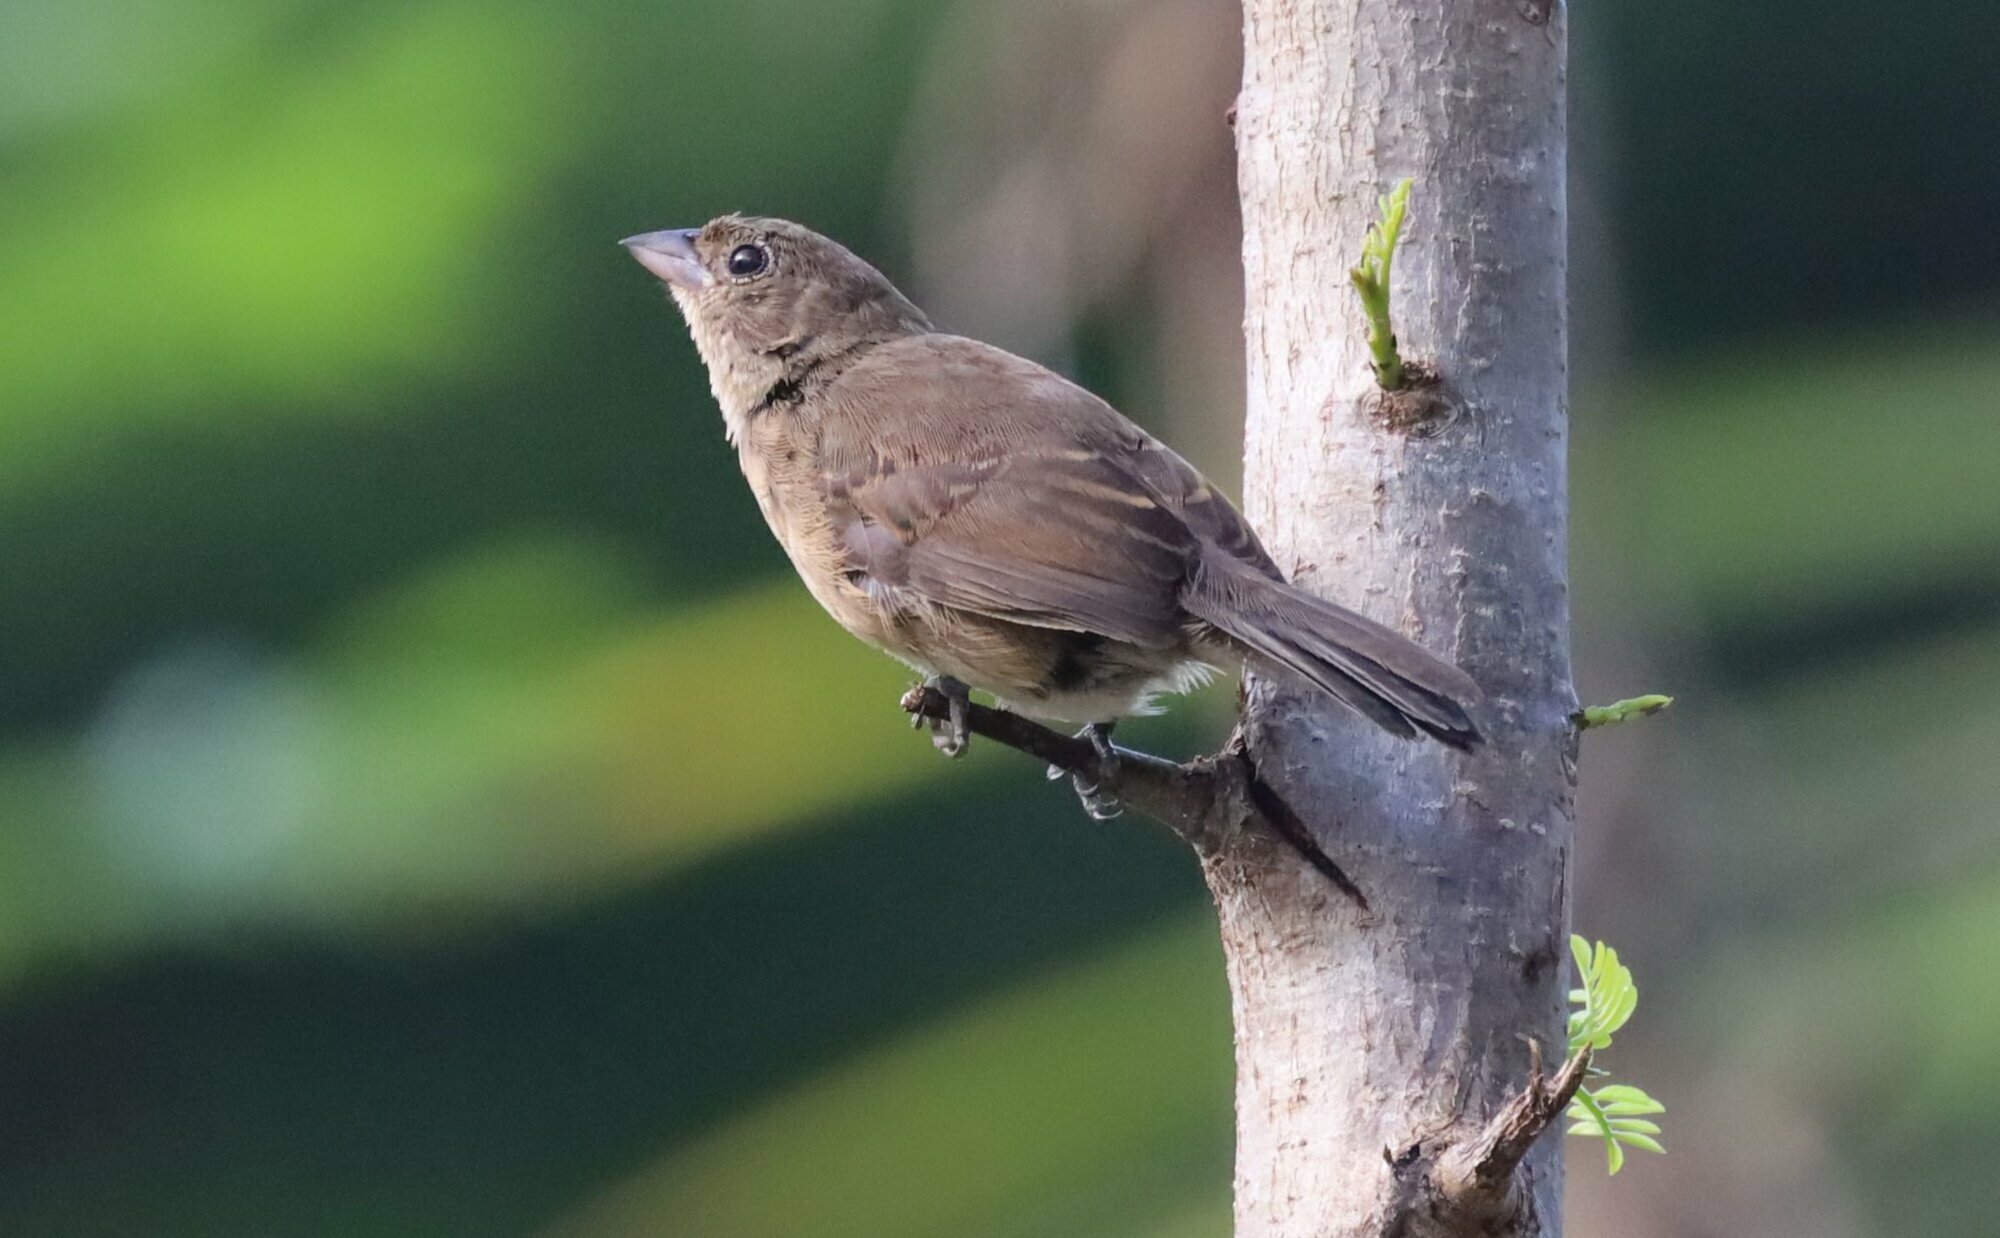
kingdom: Animalia
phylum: Chordata
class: Aves
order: Passeriformes
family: Thraupidae
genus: Volatinia
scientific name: Volatinia jacarina
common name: Blue-black grassquit
